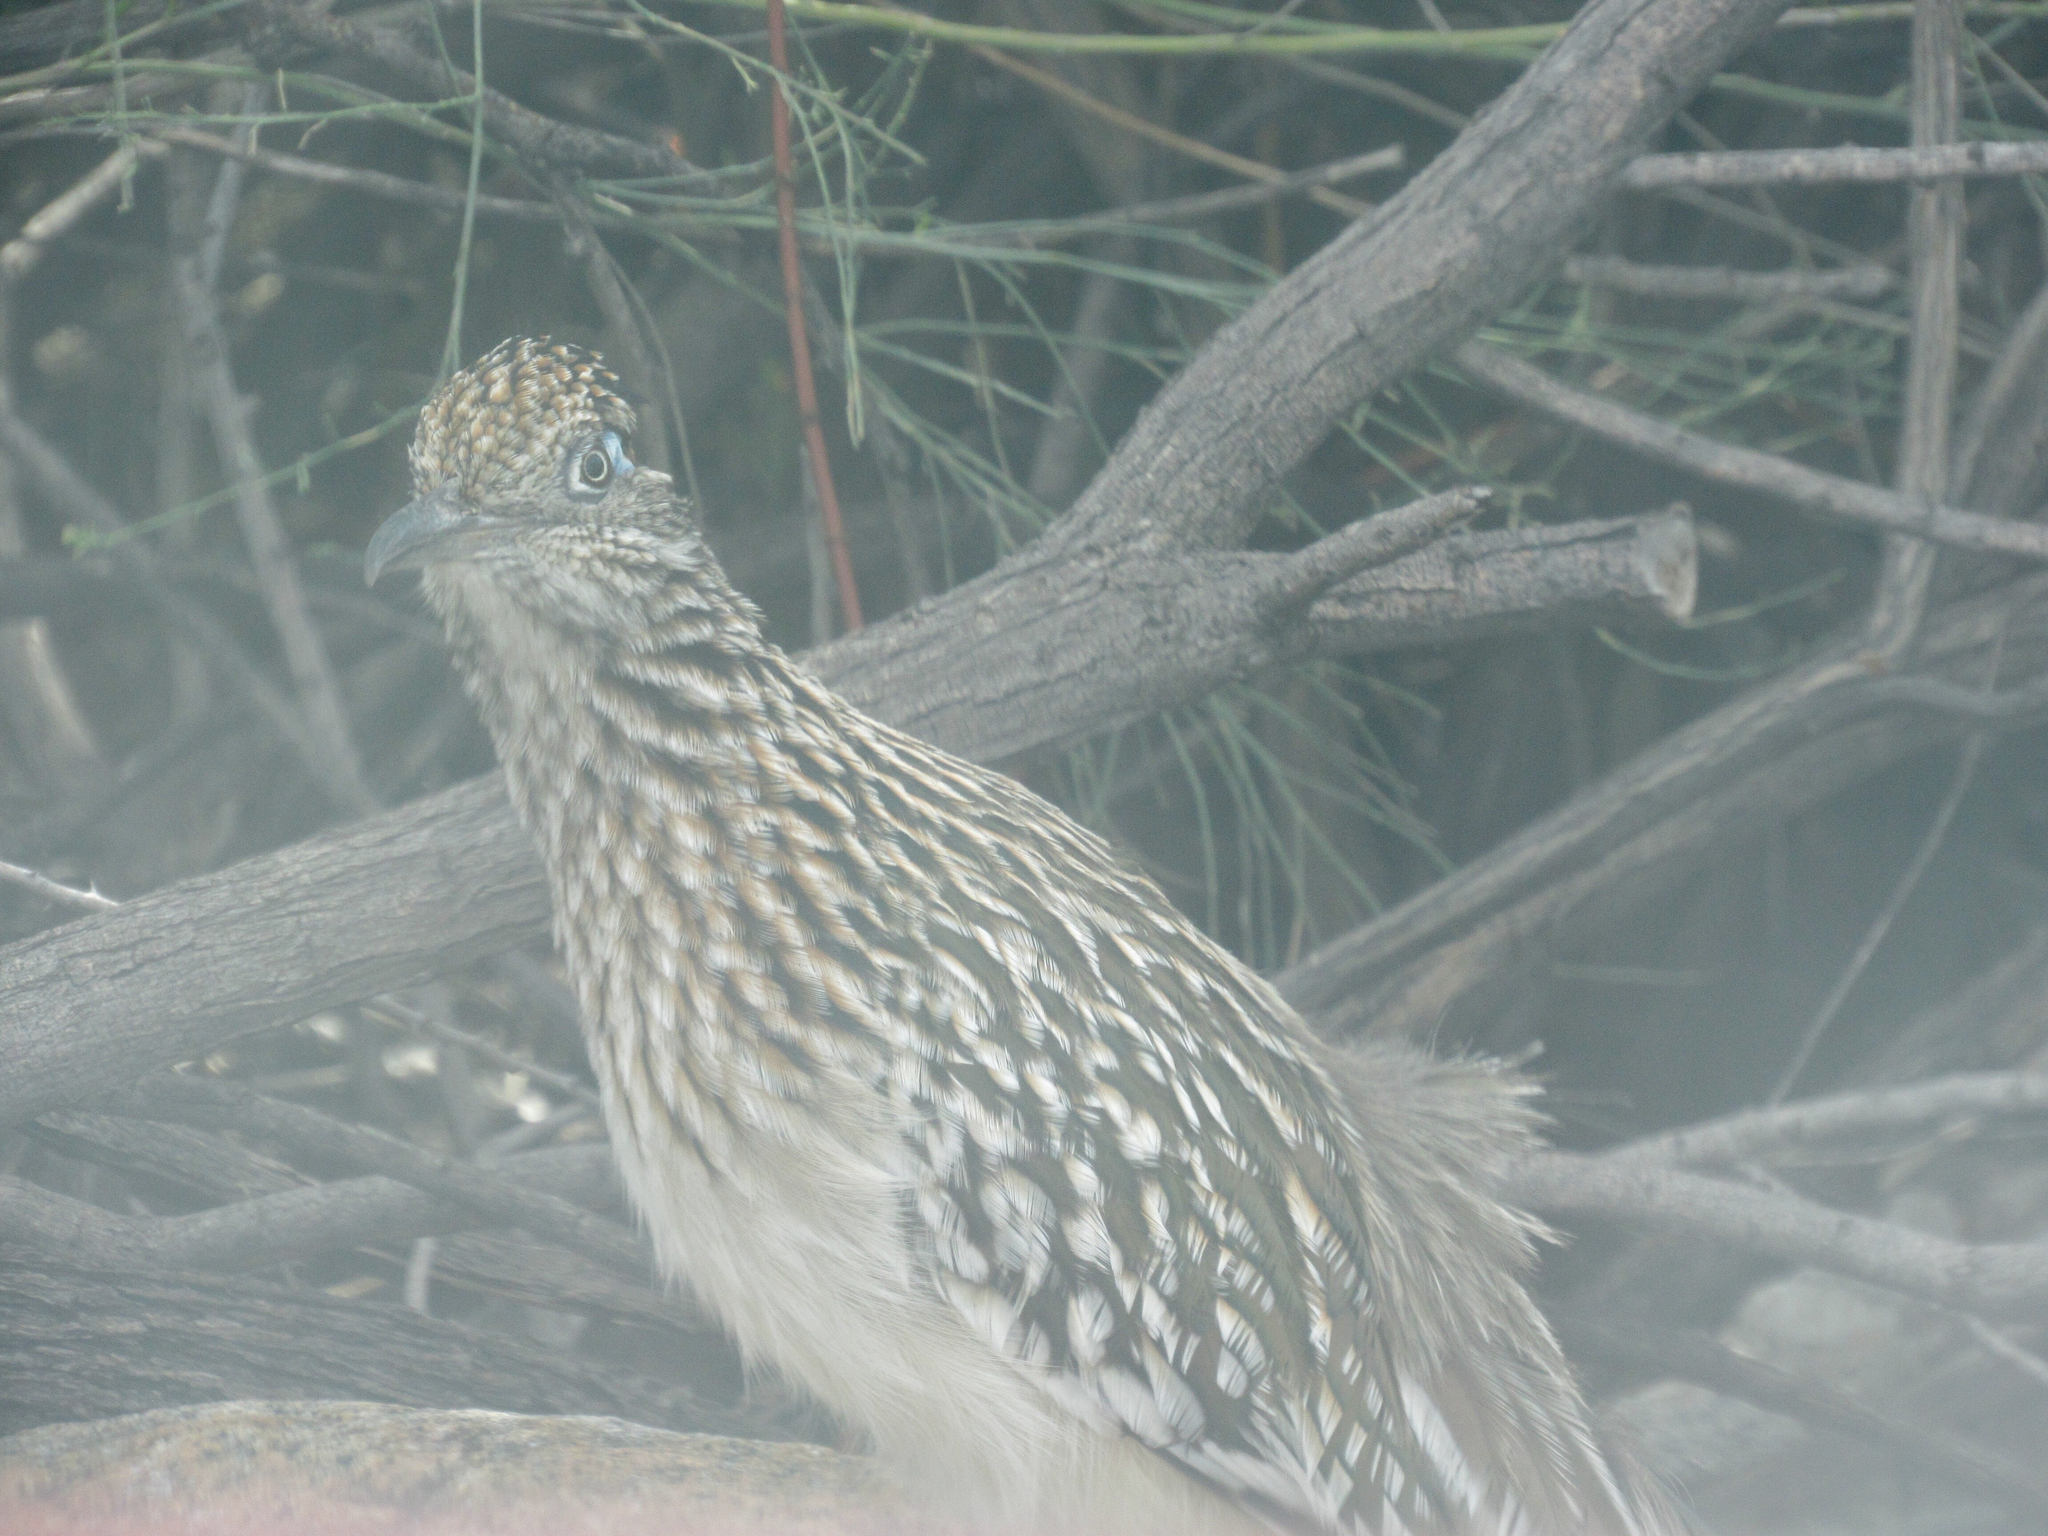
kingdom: Animalia
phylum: Chordata
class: Aves
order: Cuculiformes
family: Cuculidae
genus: Geococcyx
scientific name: Geococcyx californianus
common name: Greater roadrunner
